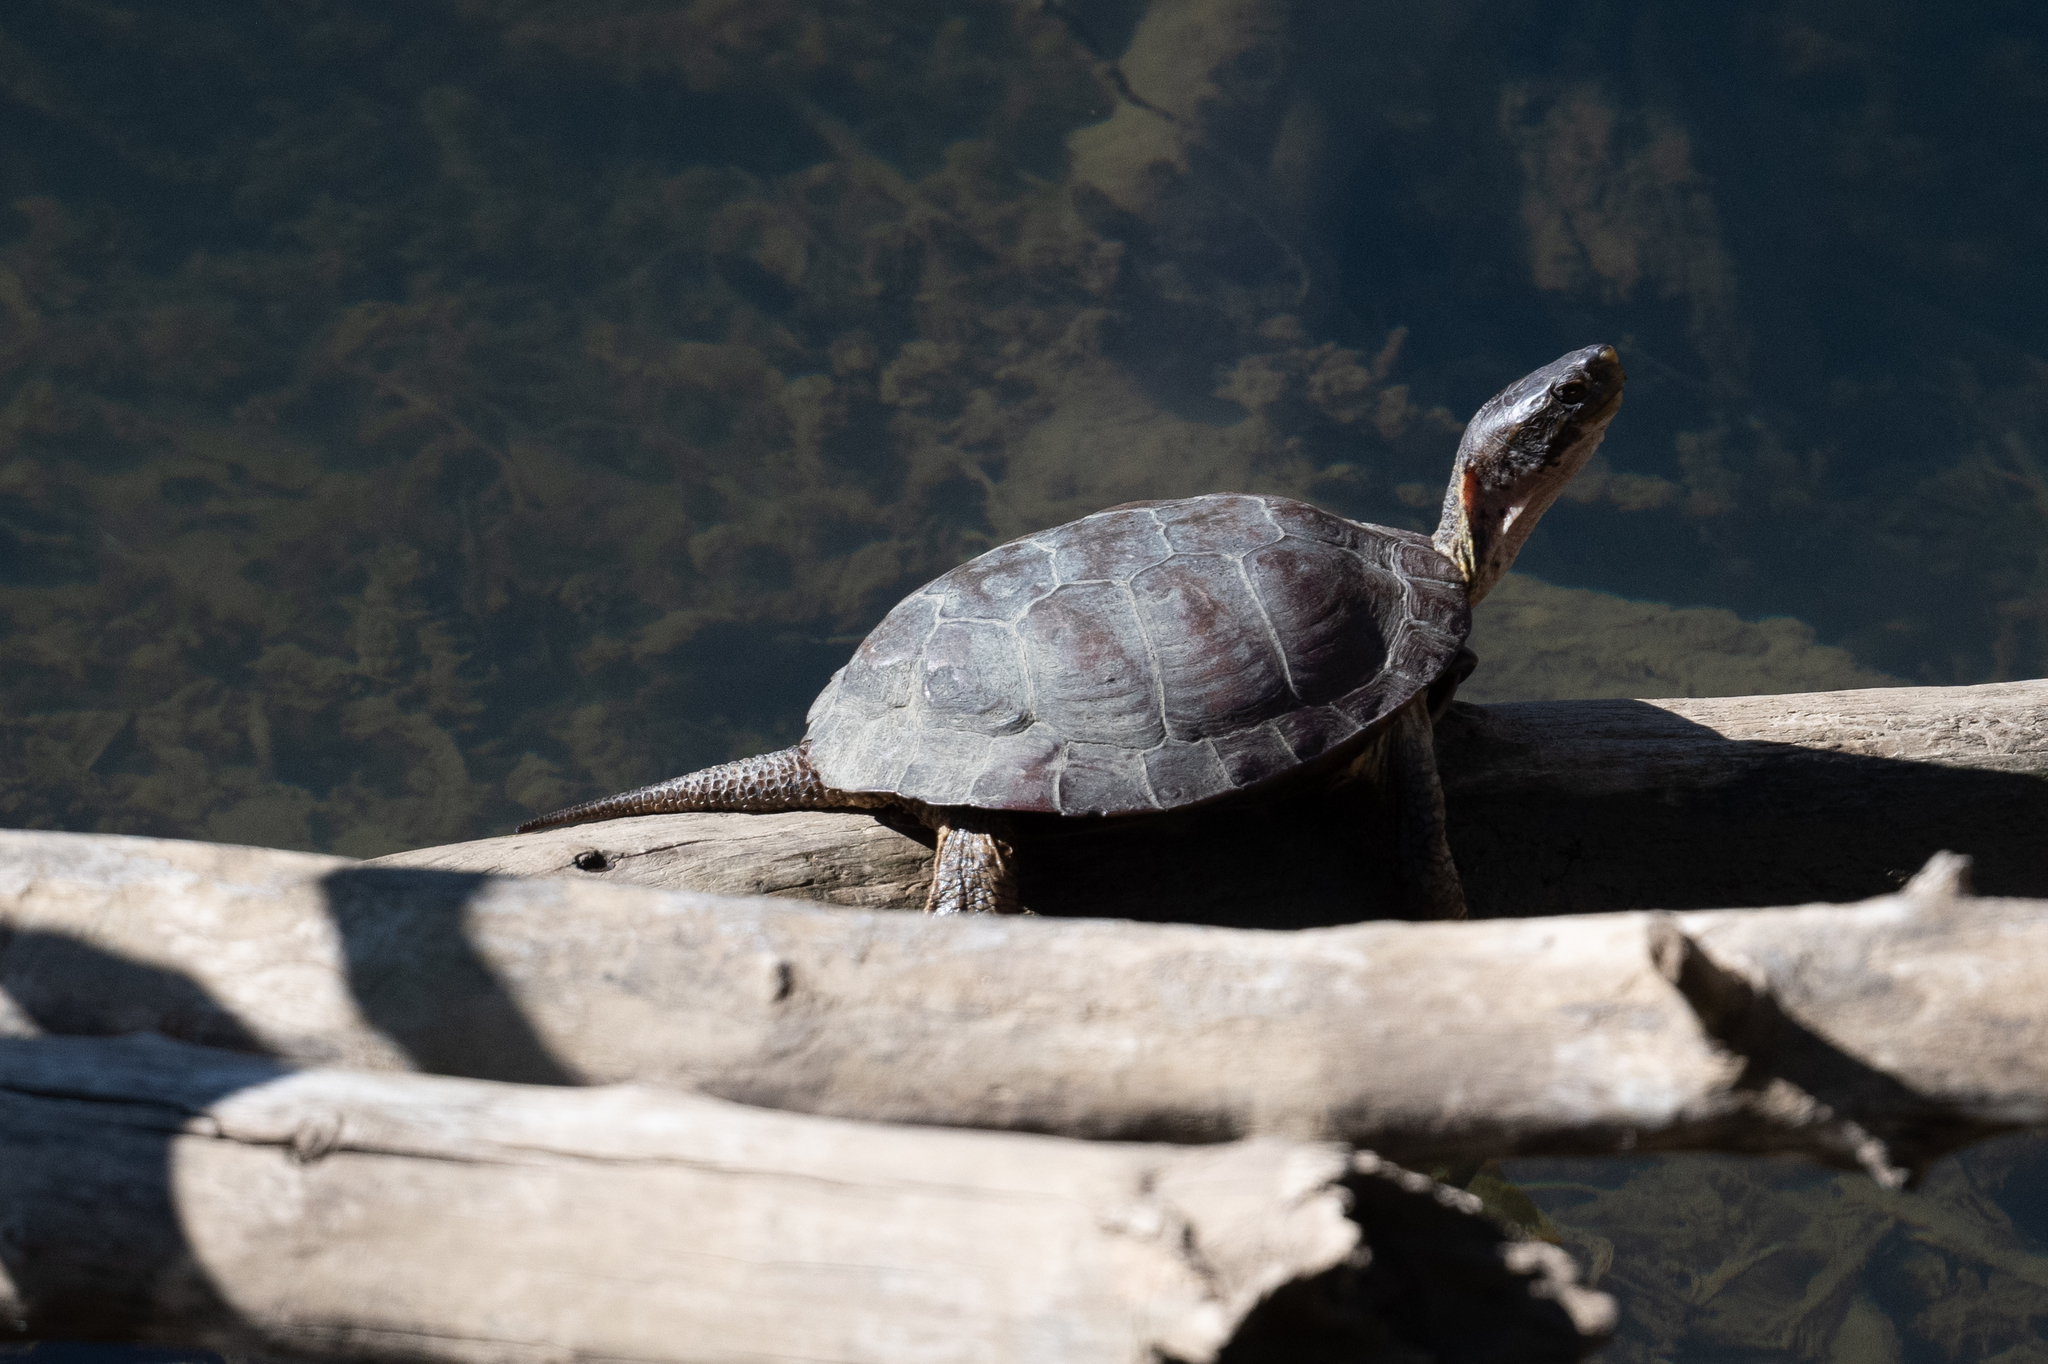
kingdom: Animalia
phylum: Chordata
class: Testudines
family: Emydidae
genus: Actinemys
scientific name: Actinemys marmorata
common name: Western pond turtle
